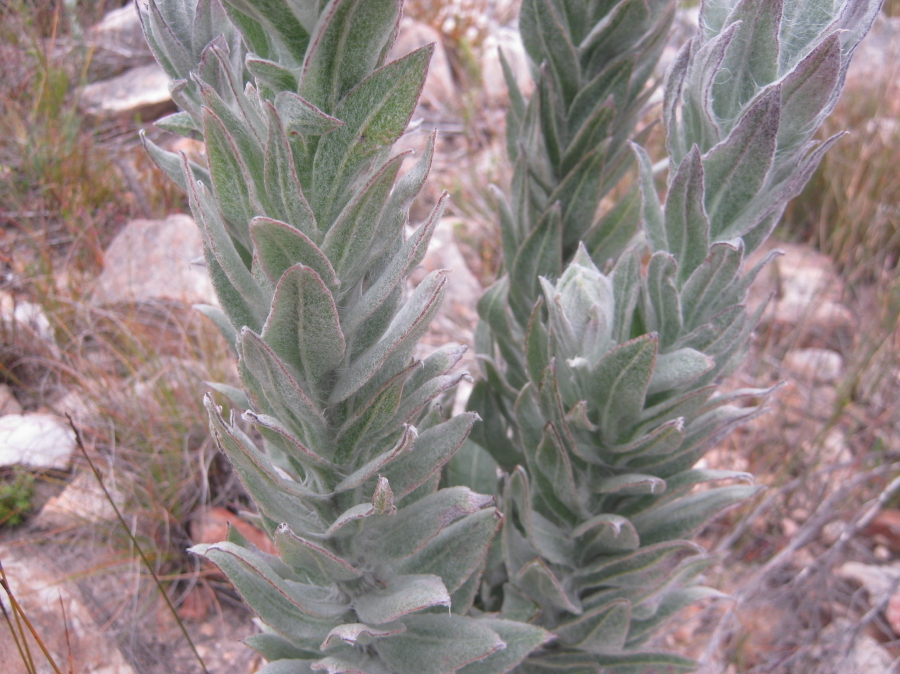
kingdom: Plantae
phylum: Tracheophyta
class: Magnoliopsida
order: Asterales
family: Asteraceae
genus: Syncarpha
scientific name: Syncarpha milleflora
